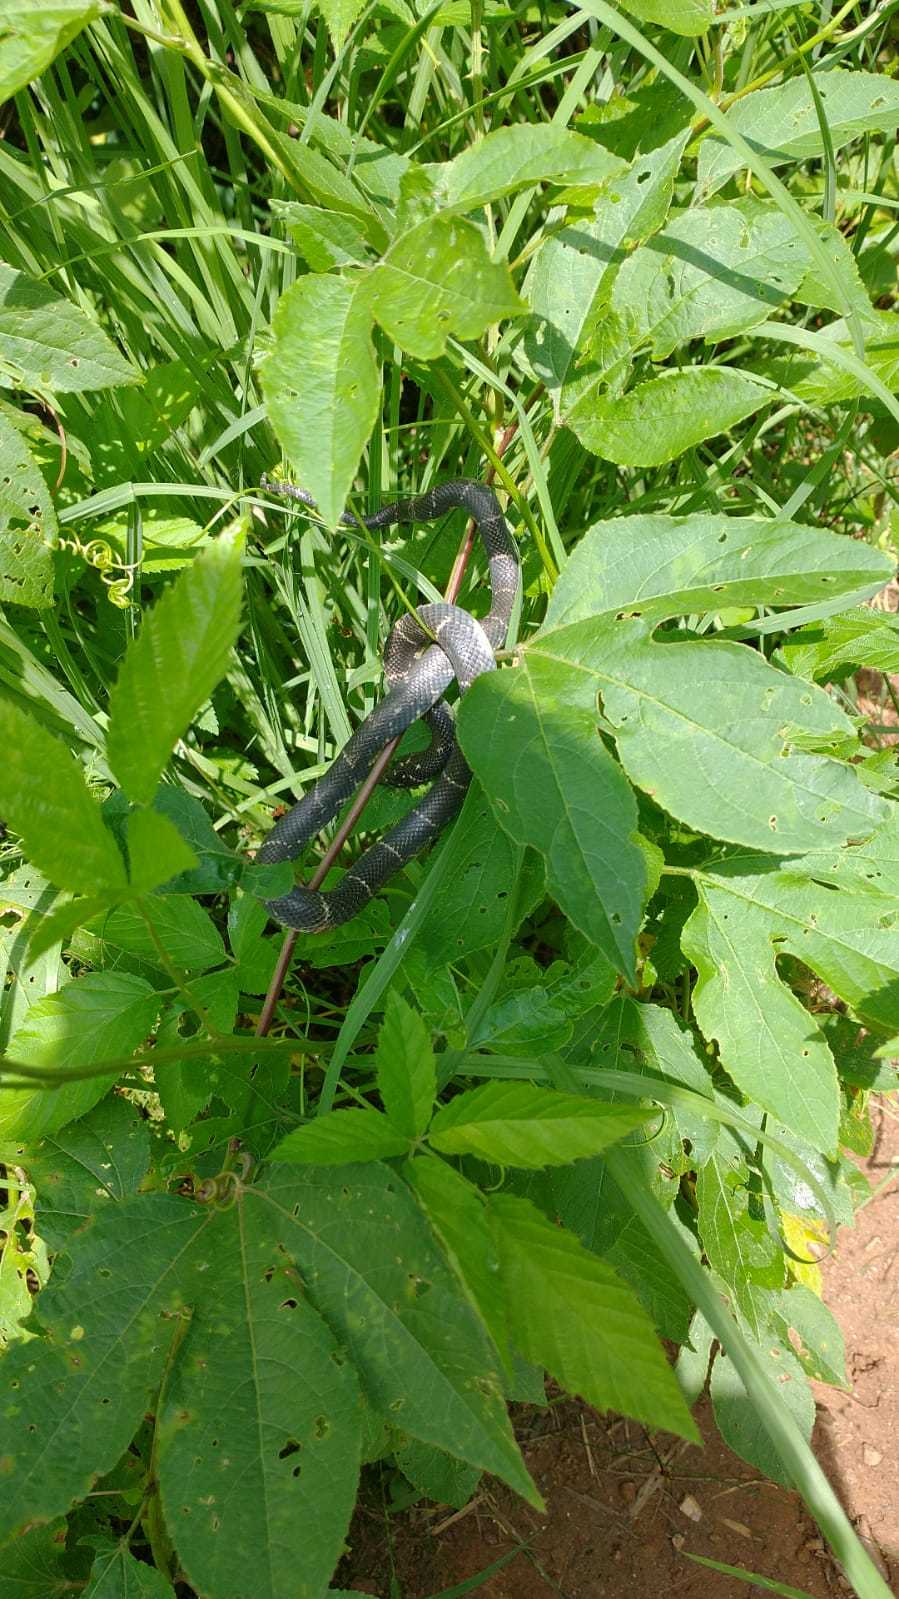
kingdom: Animalia
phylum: Chordata
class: Squamata
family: Colubridae
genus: Lampropeltis
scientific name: Lampropeltis getula
